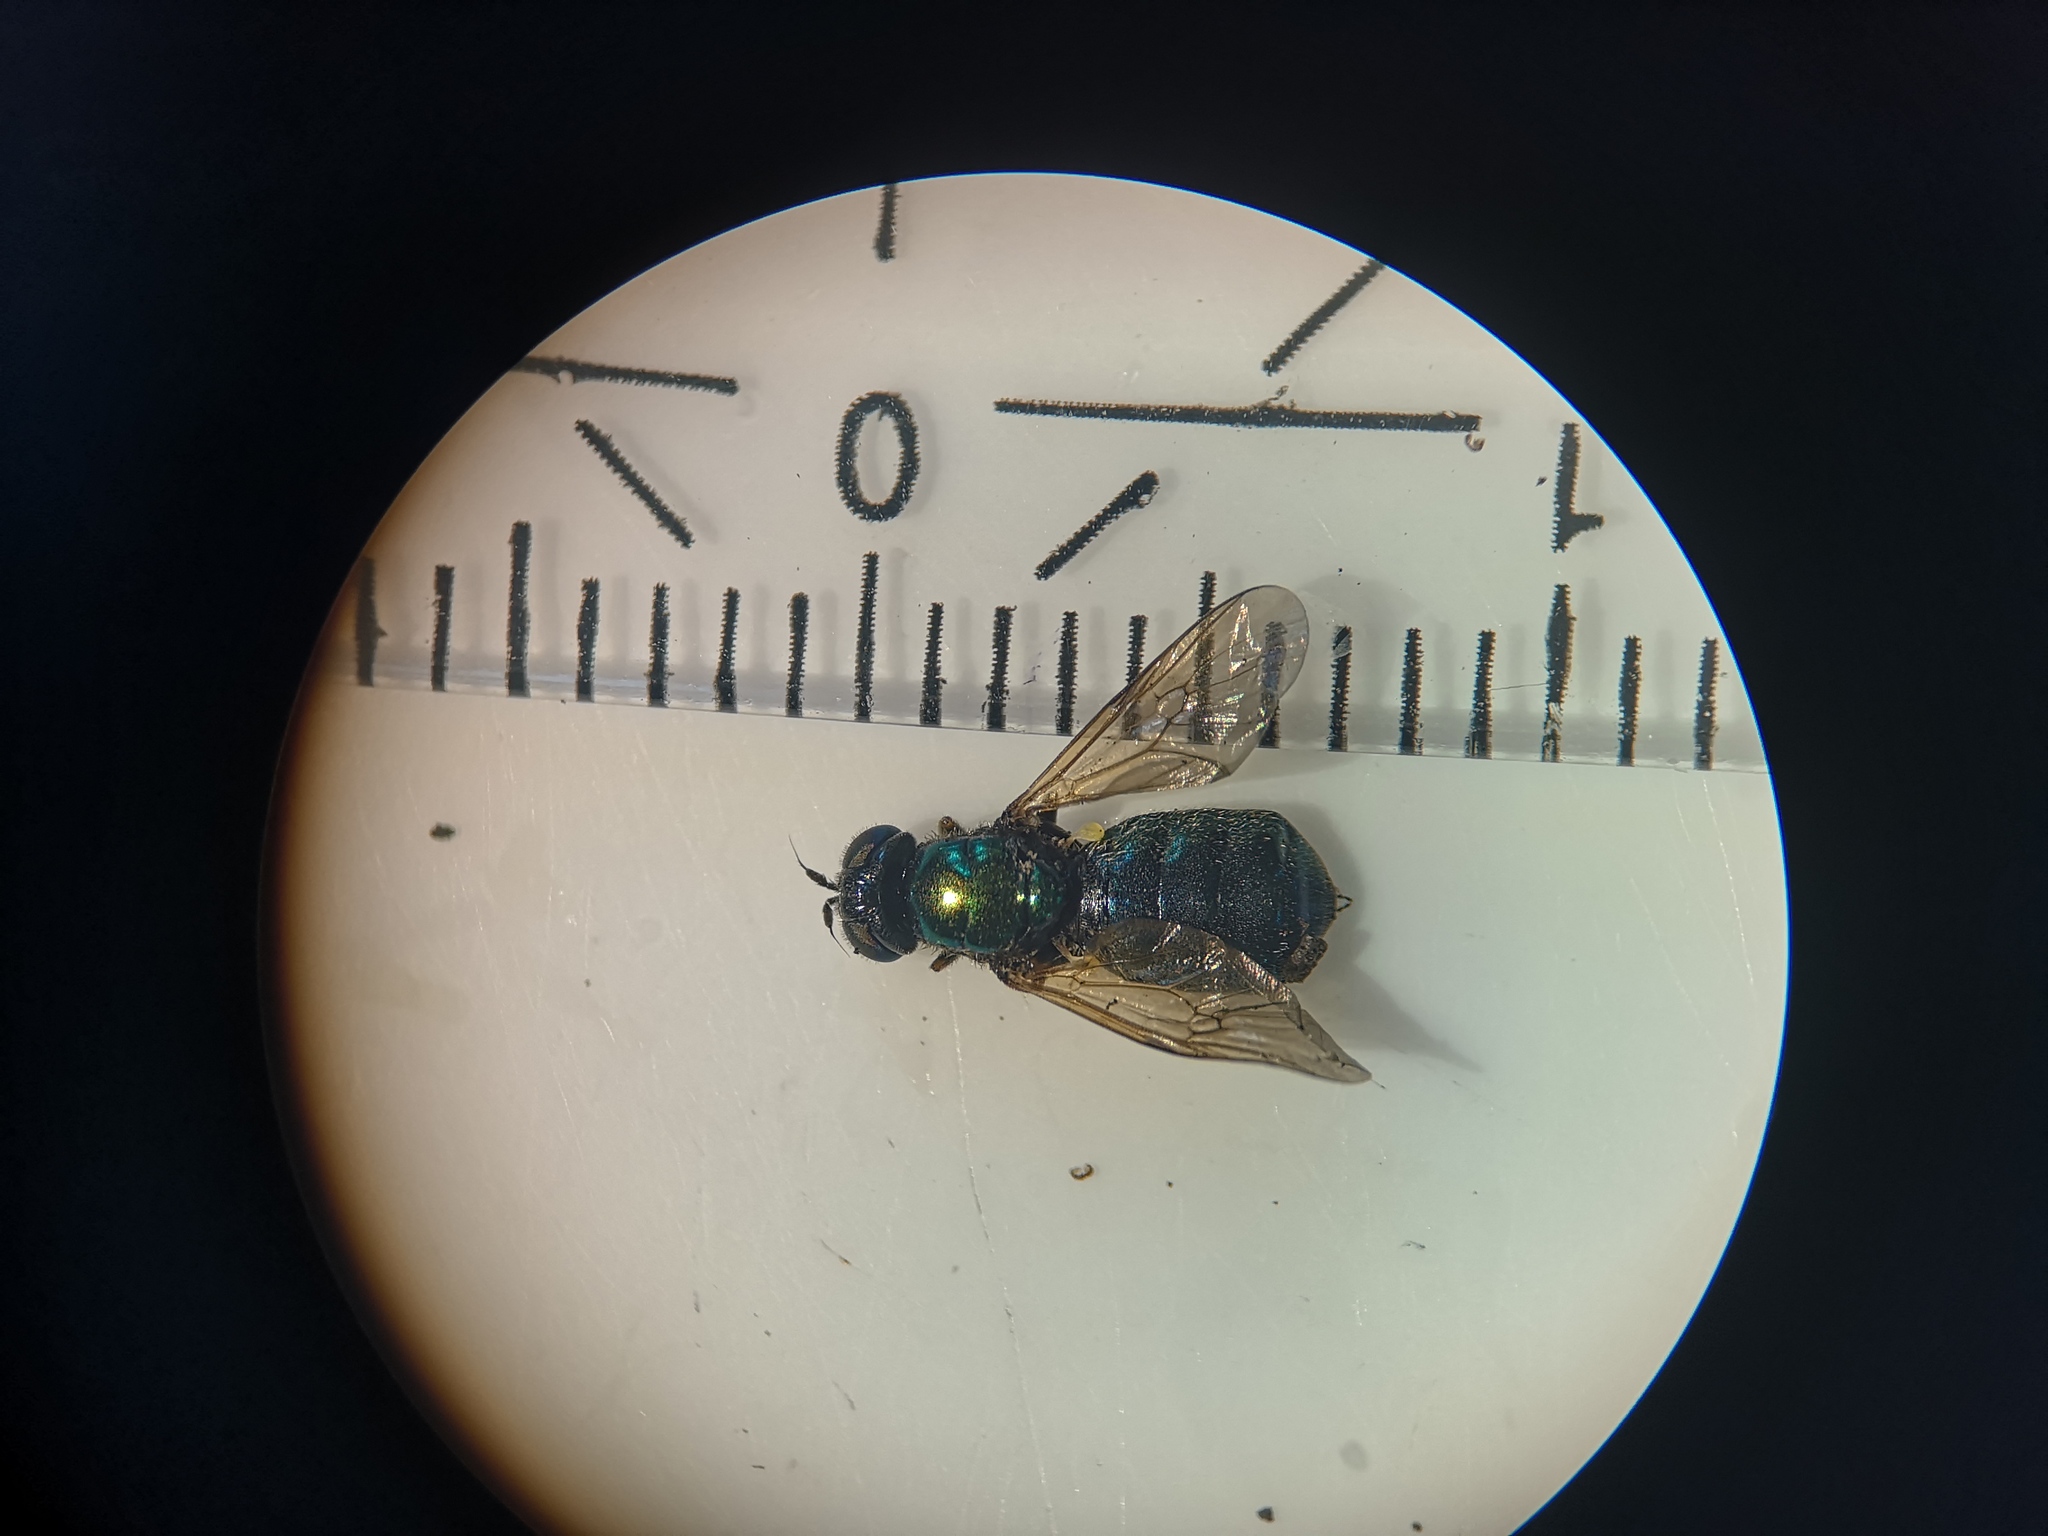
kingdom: Animalia
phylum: Arthropoda
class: Insecta
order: Diptera
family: Stratiomyidae
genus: Chloromyia
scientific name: Chloromyia formosa
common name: Soldier fly
